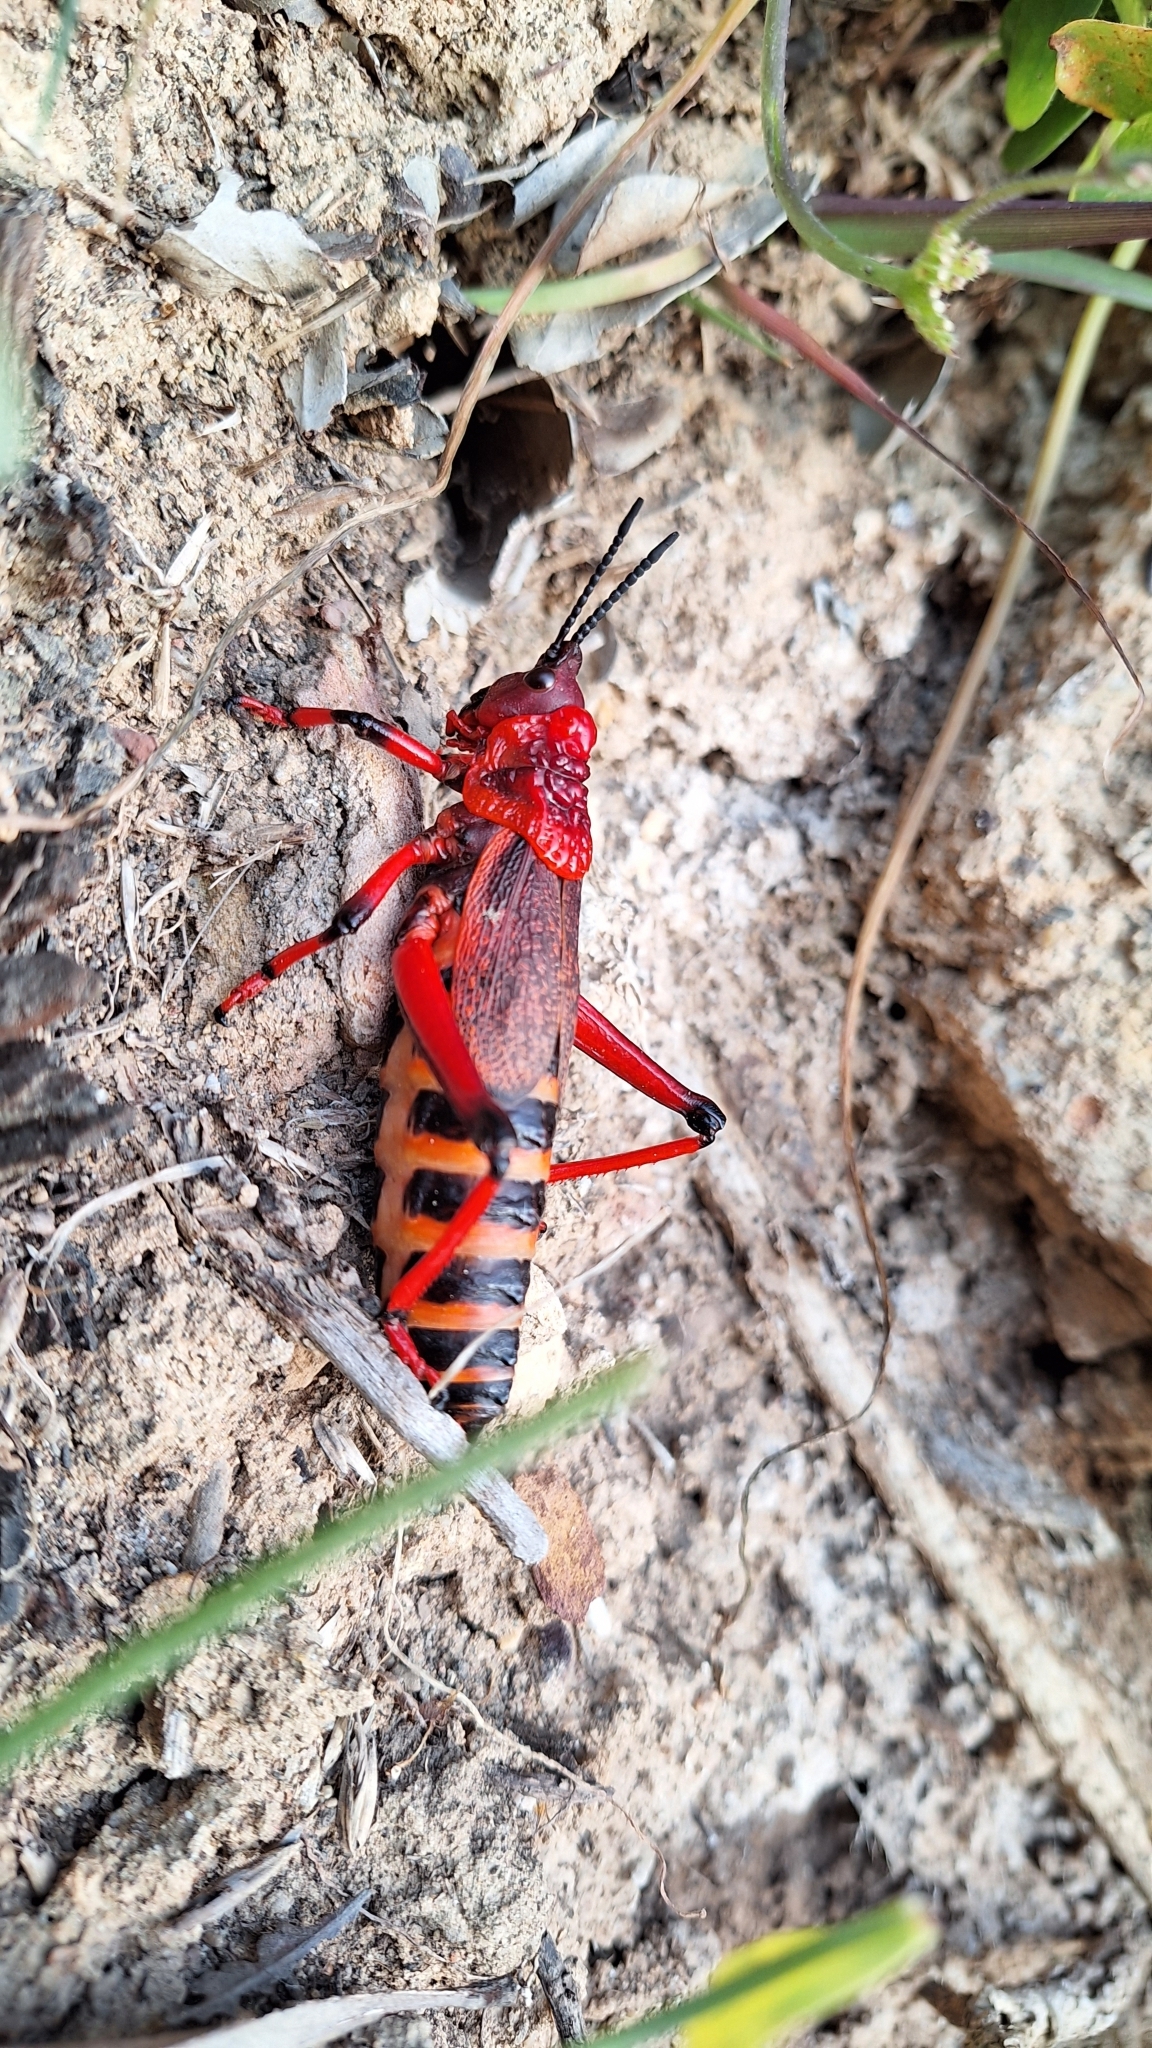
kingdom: Animalia
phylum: Arthropoda
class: Insecta
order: Orthoptera
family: Pyrgomorphidae
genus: Dictyophorus
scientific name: Dictyophorus spumans
